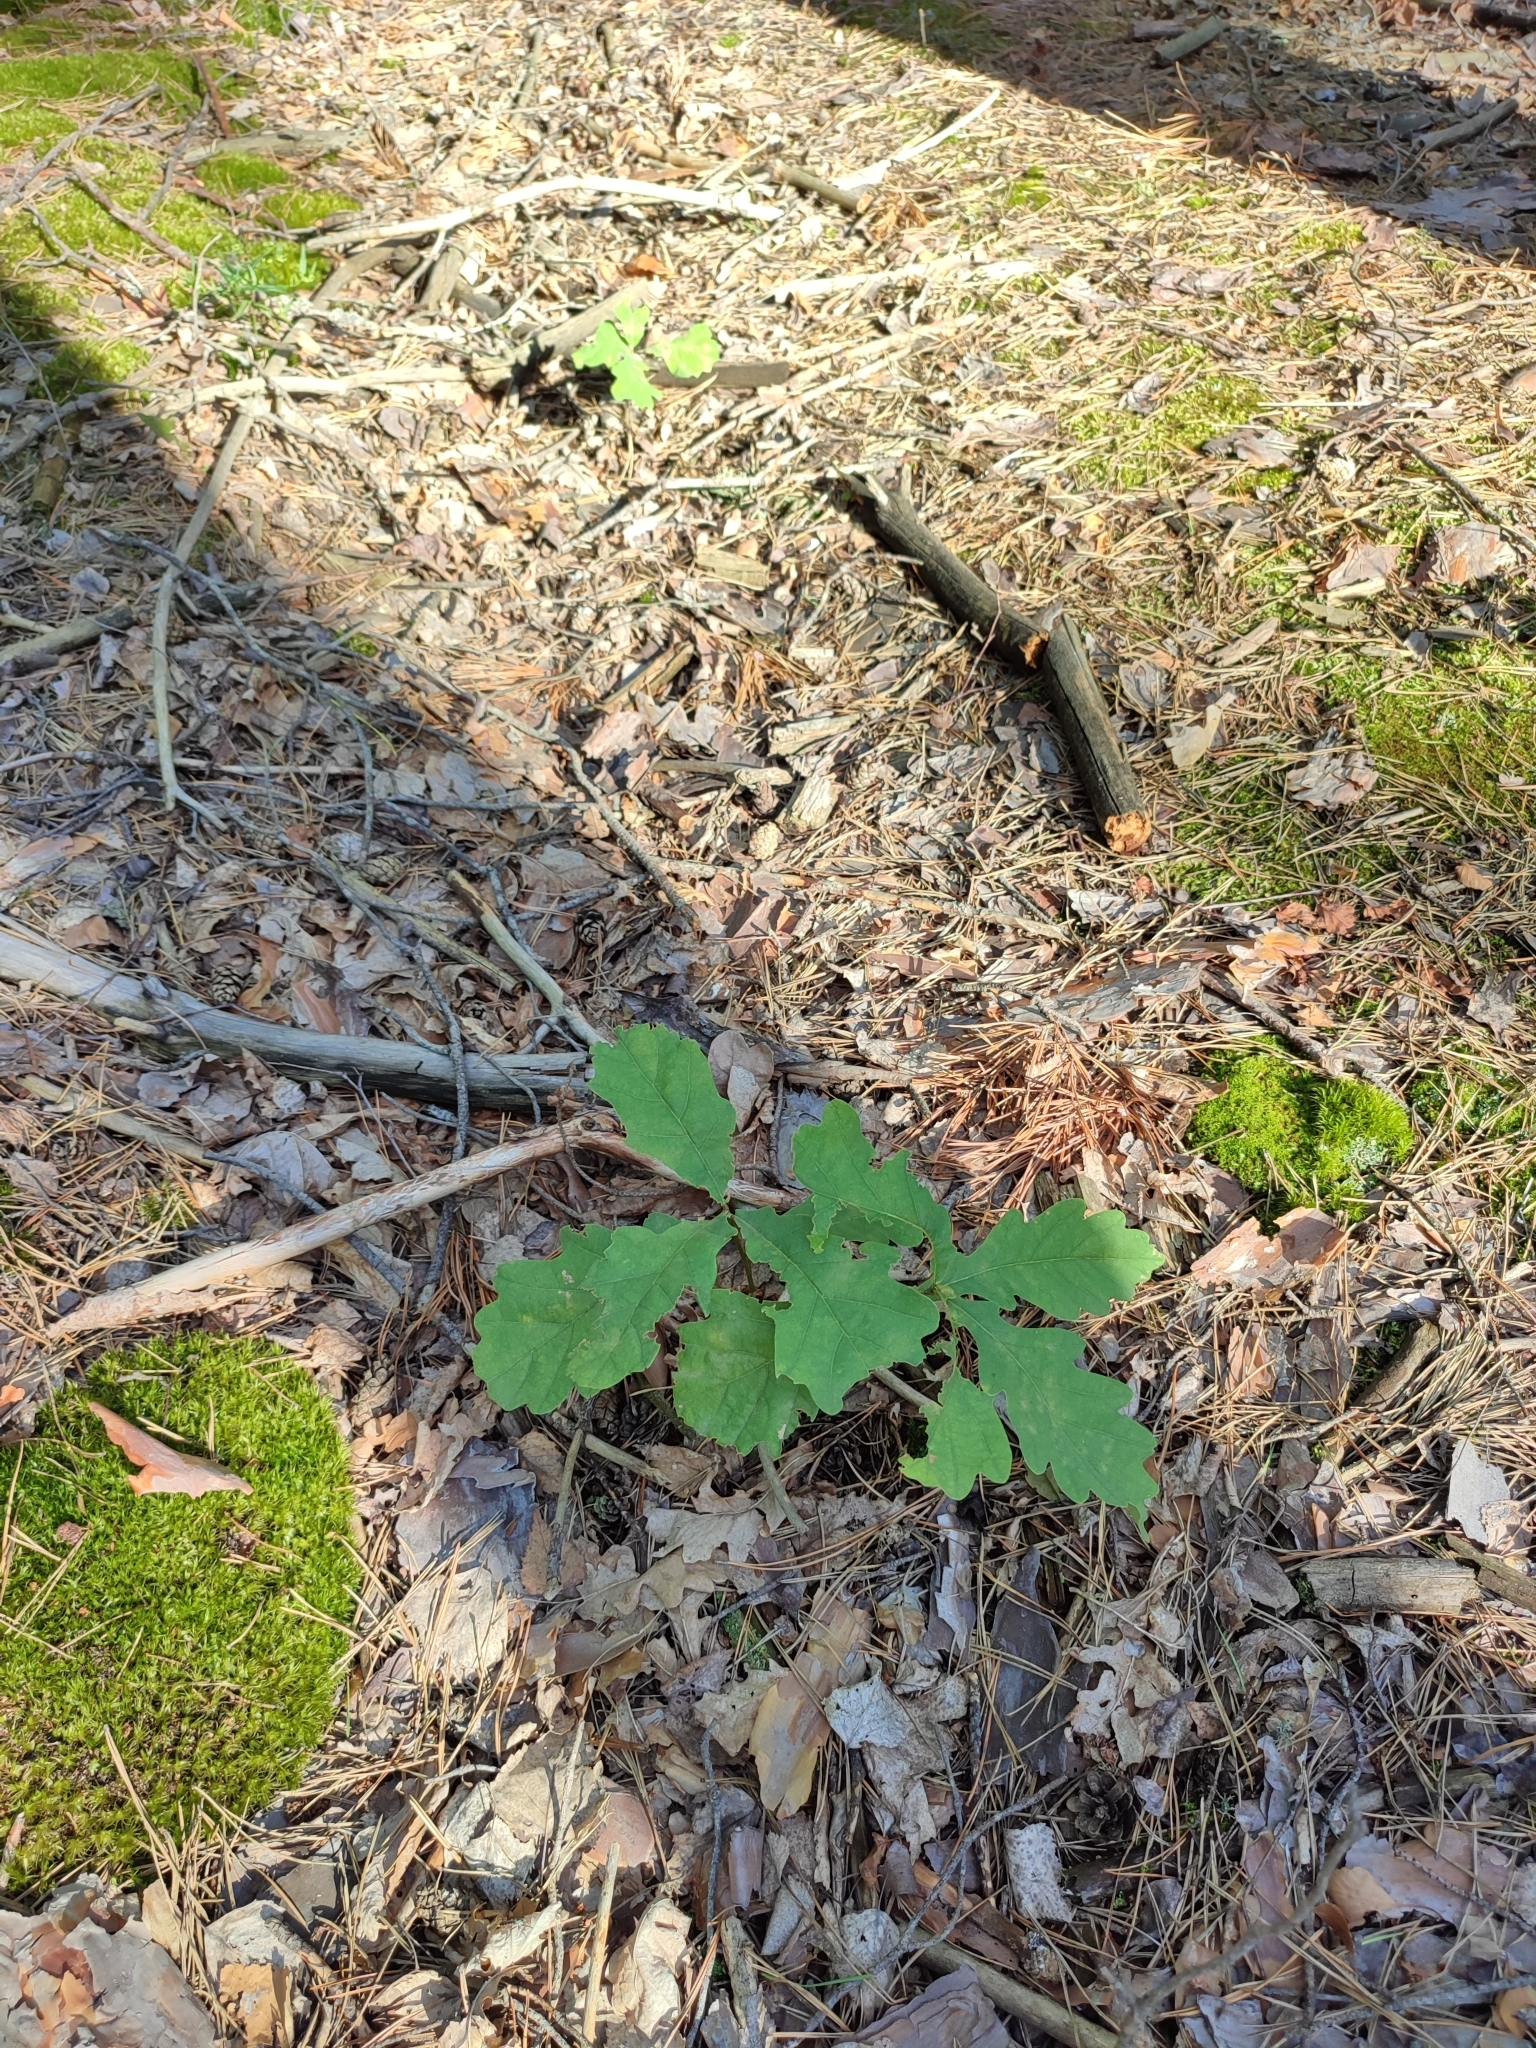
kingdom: Plantae
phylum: Tracheophyta
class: Magnoliopsida
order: Fagales
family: Fagaceae
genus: Quercus
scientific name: Quercus robur
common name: Pedunculate oak
